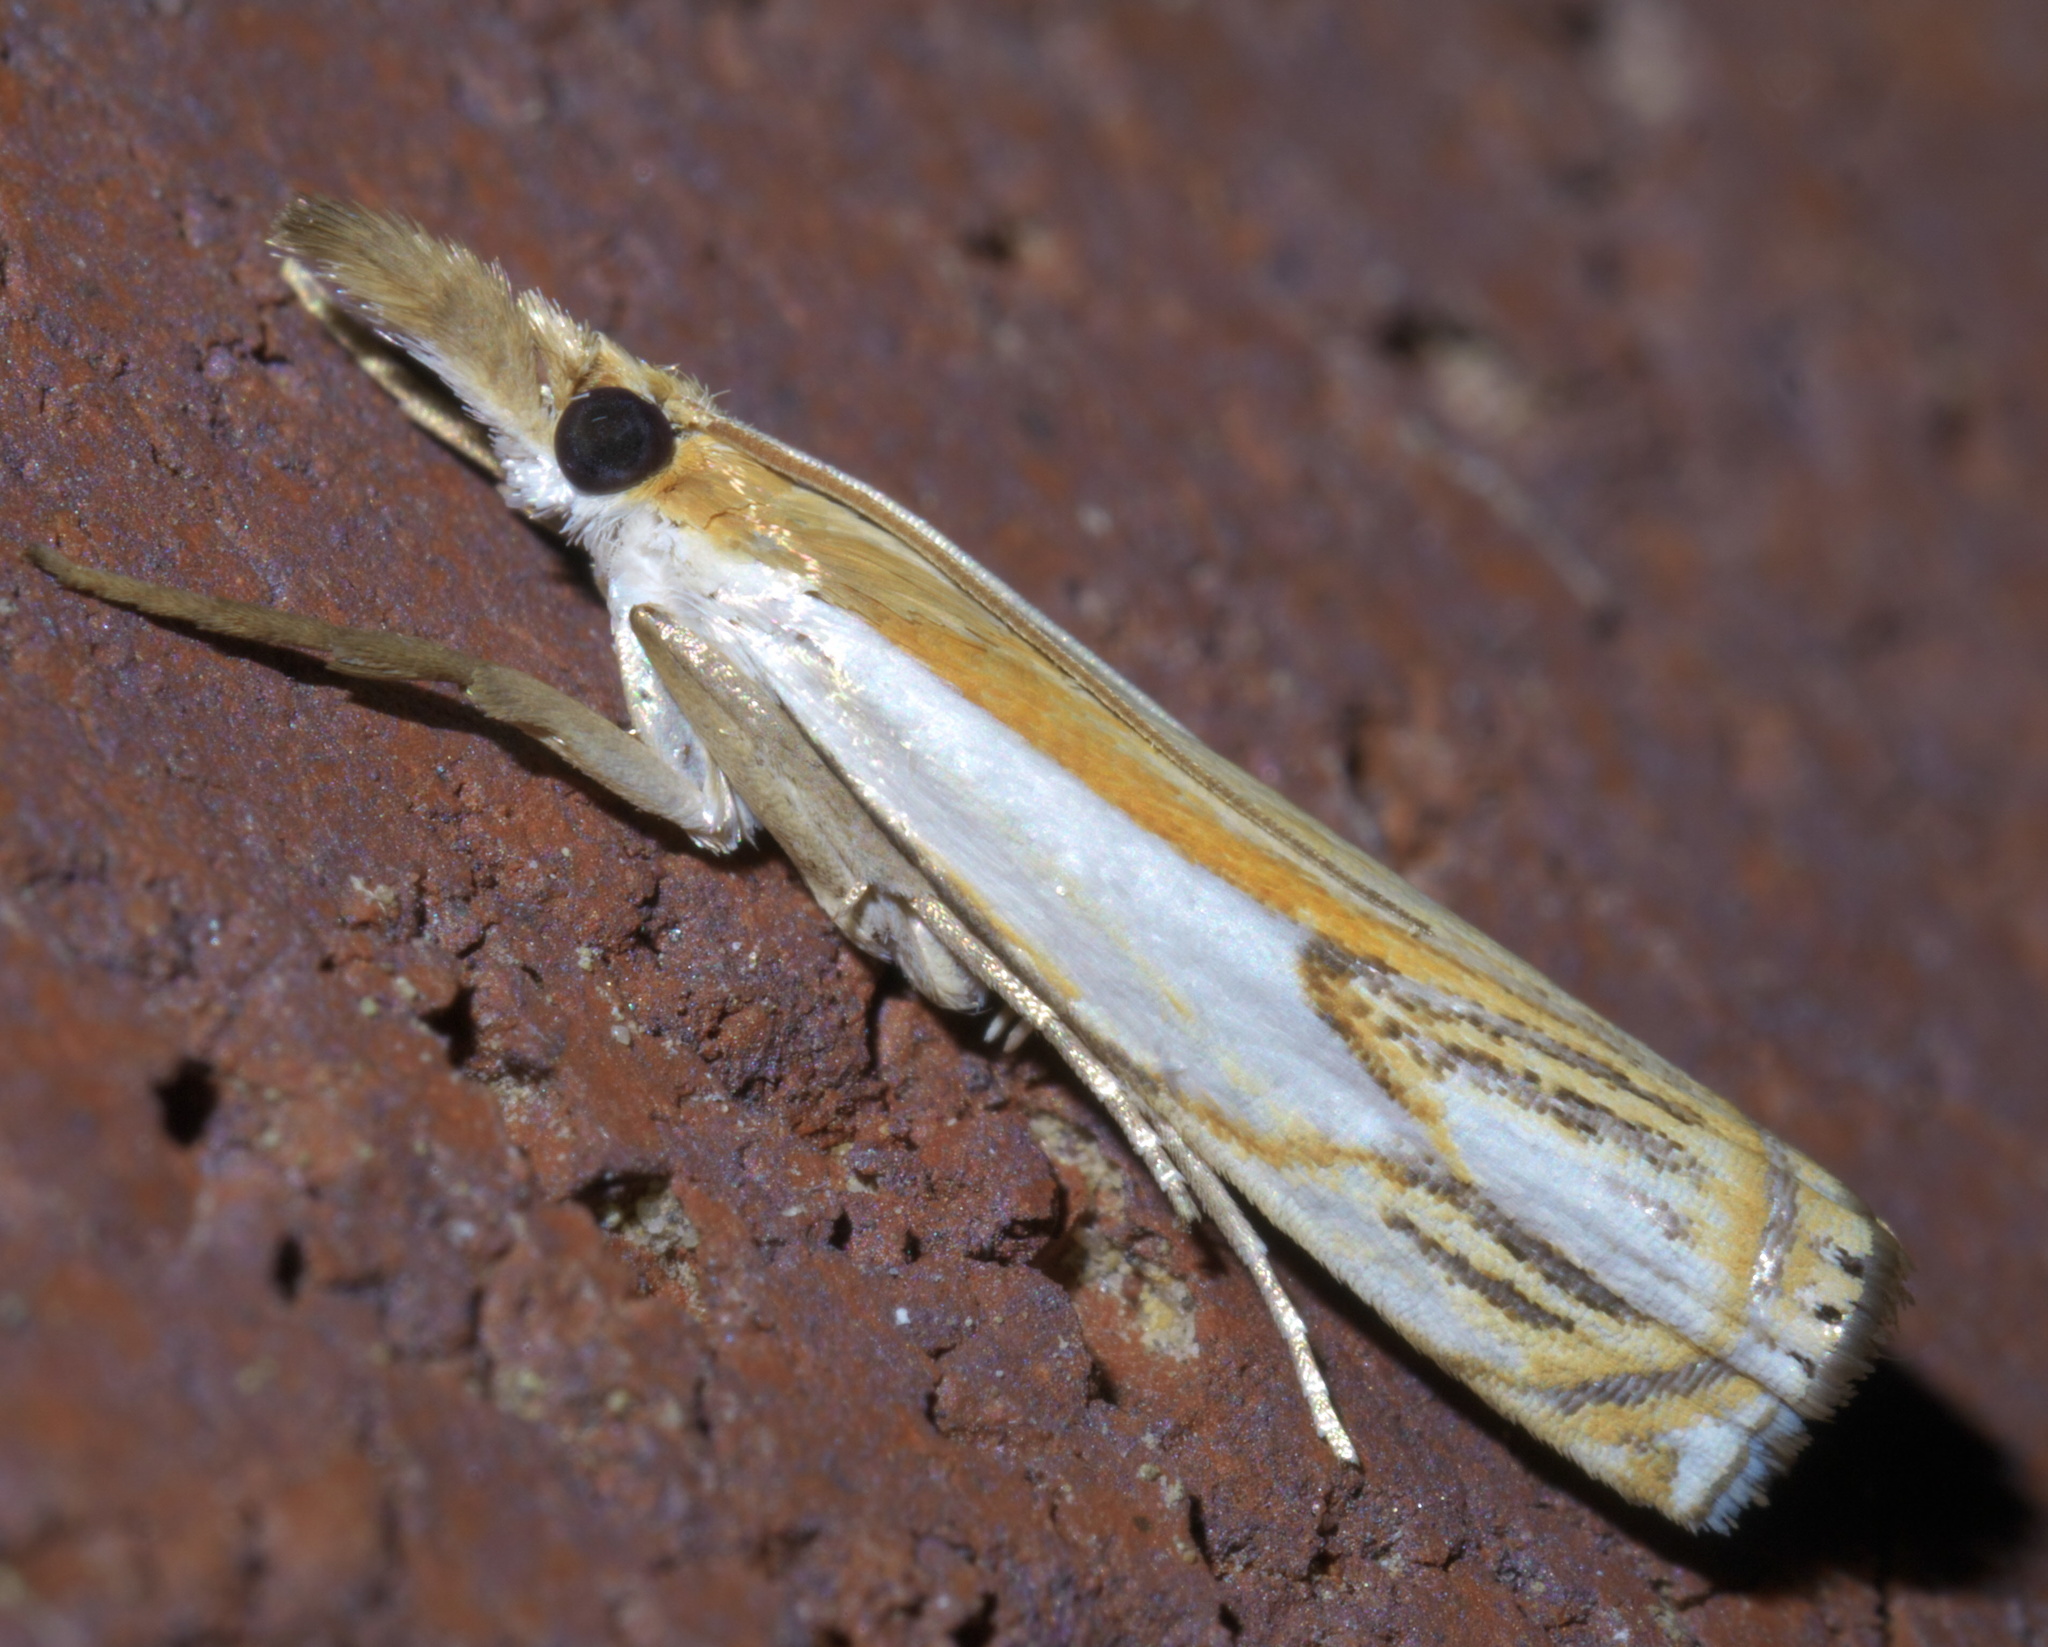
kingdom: Animalia
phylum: Arthropoda
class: Insecta
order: Lepidoptera
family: Crambidae
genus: Crambus
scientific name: Crambus agitatellus
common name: Double-banded grass-veneer
